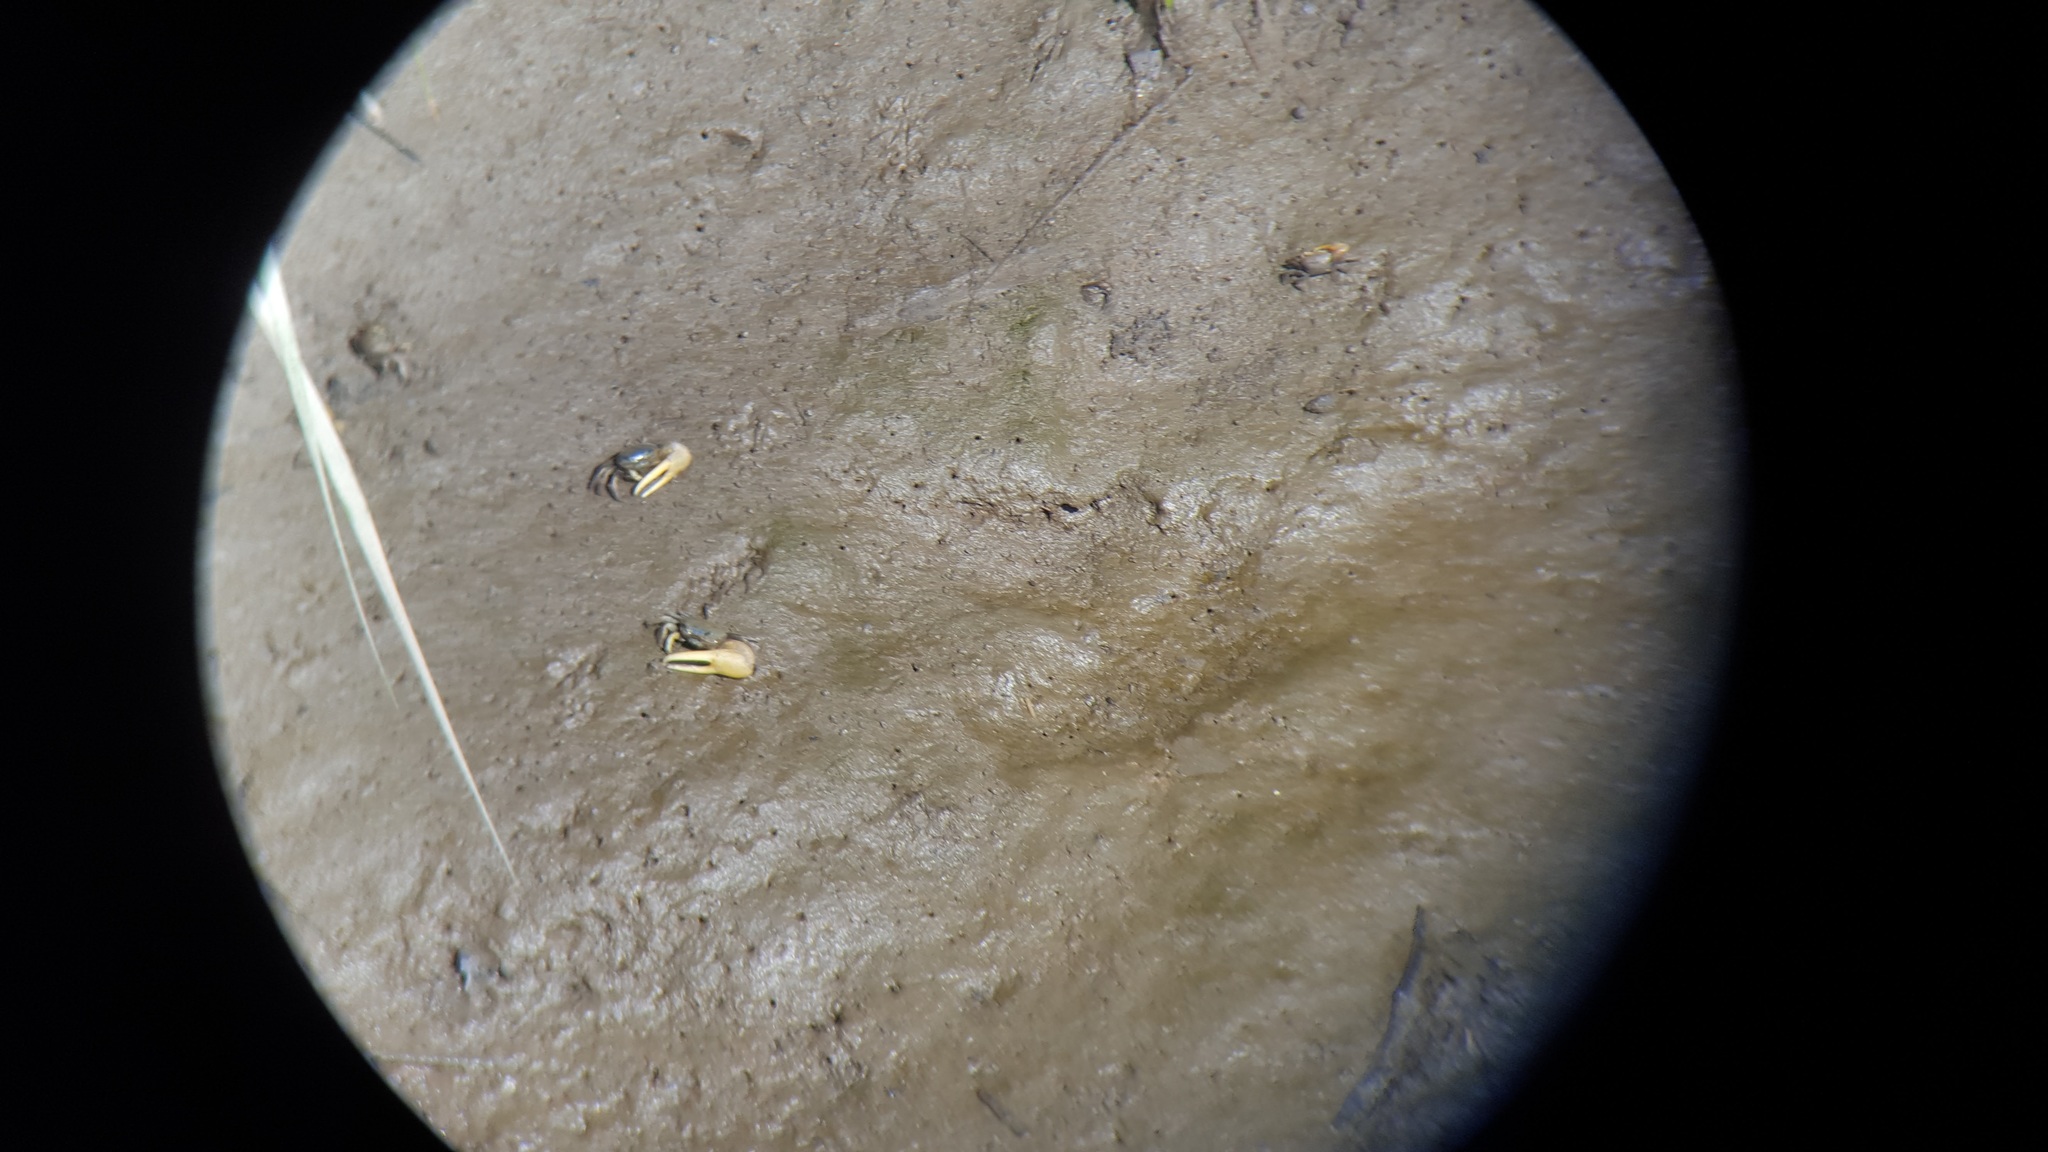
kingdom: Animalia
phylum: Arthropoda
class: Malacostraca
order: Decapoda
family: Ocypodidae
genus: Minuca
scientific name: Minuca pugnax
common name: Mud fiddler crab
